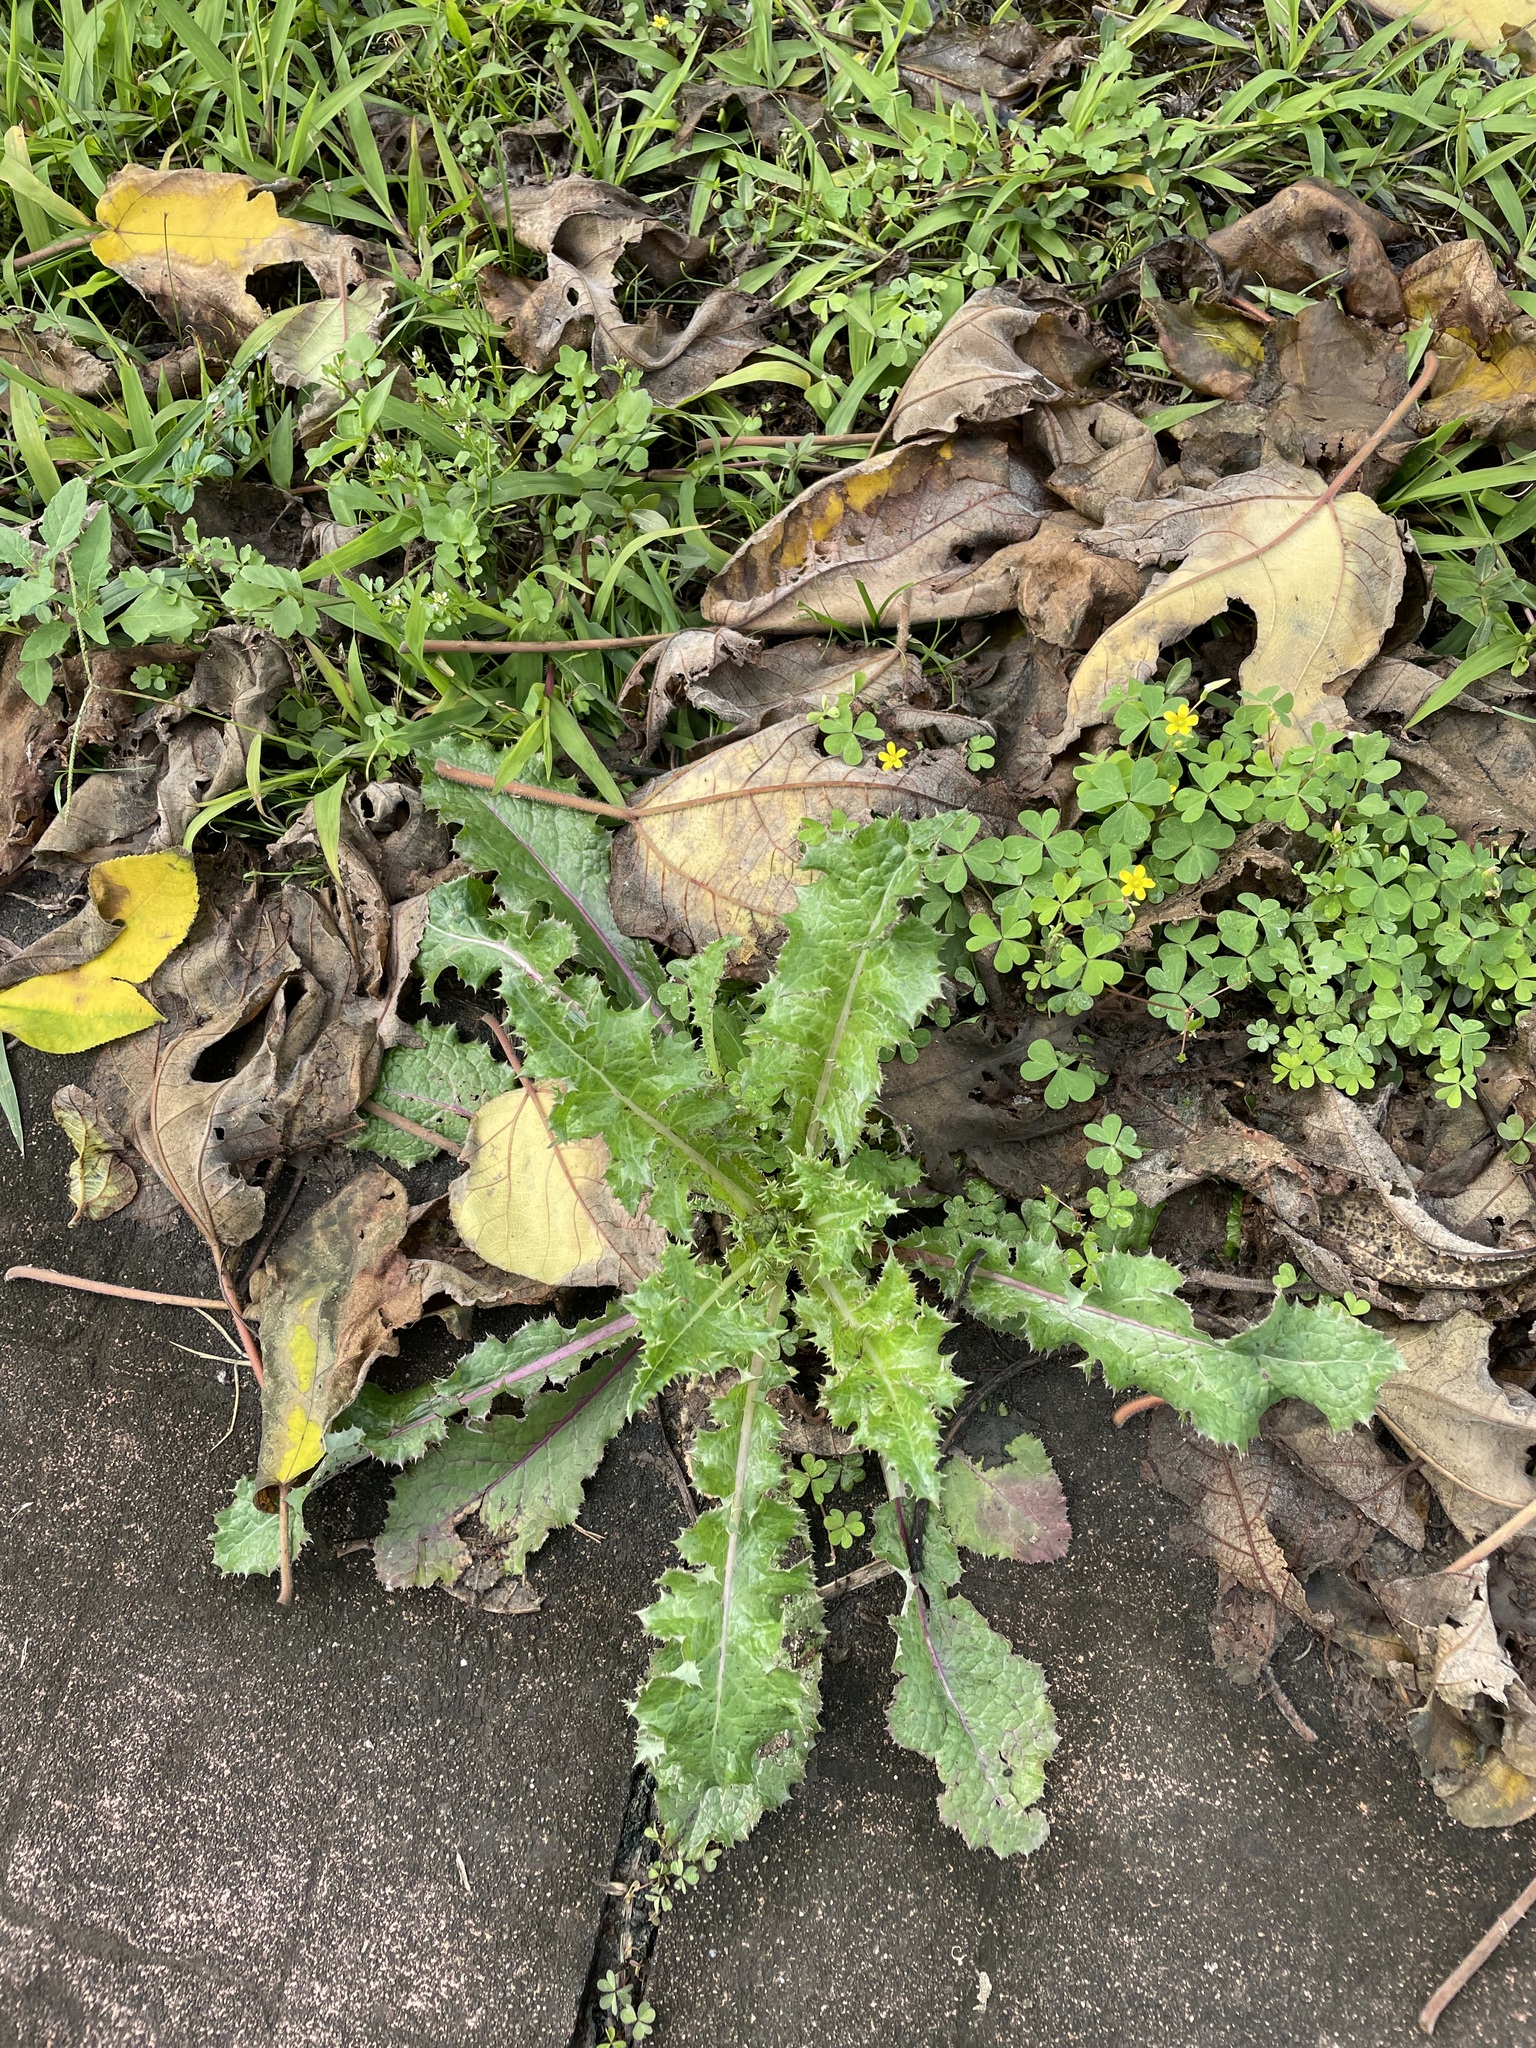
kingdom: Plantae
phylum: Tracheophyta
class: Magnoliopsida
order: Asterales
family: Asteraceae
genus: Sonchus
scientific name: Sonchus asper
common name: Prickly sow-thistle
